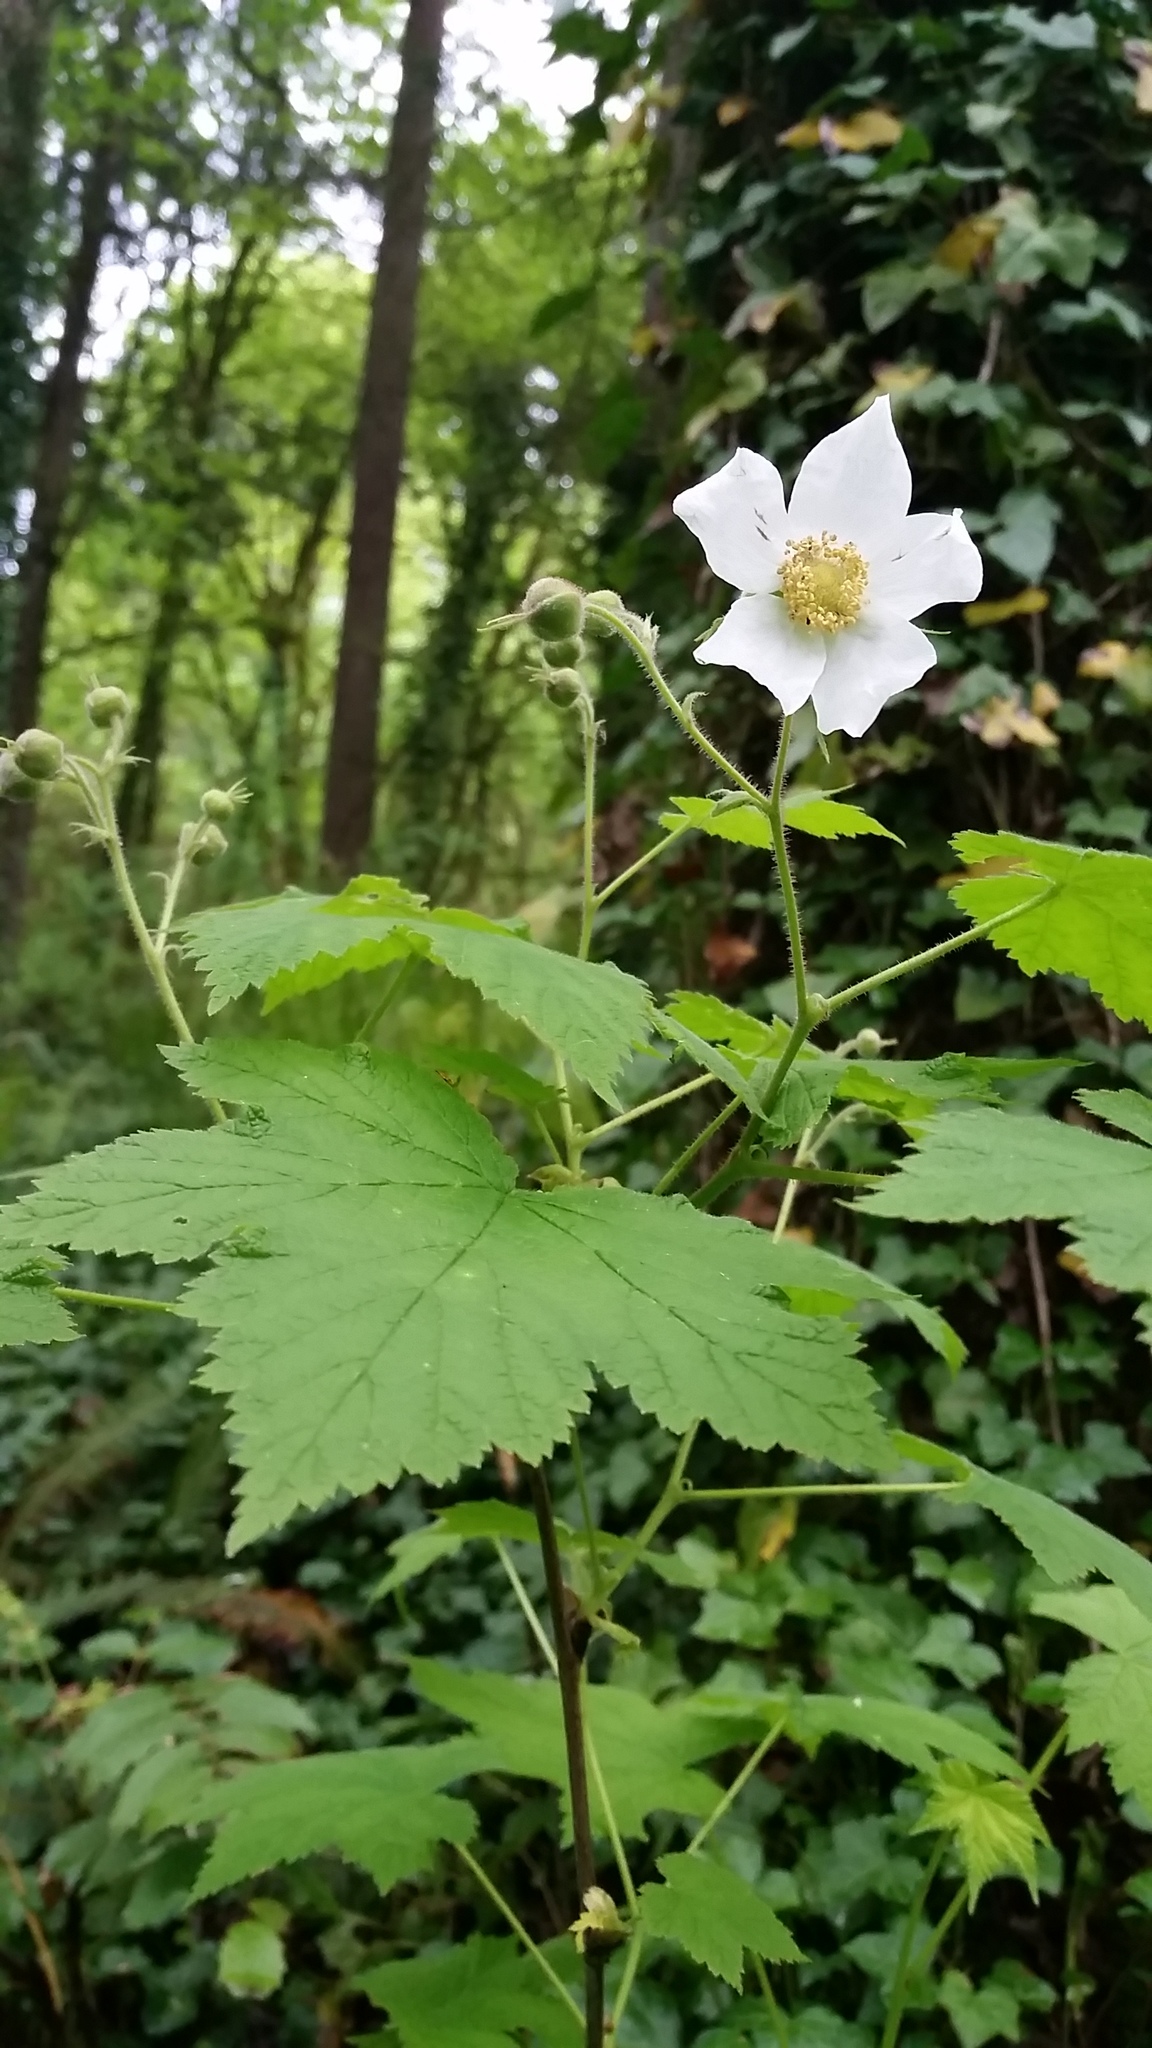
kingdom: Plantae
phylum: Tracheophyta
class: Magnoliopsida
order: Rosales
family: Rosaceae
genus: Rubus
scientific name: Rubus parviflorus
